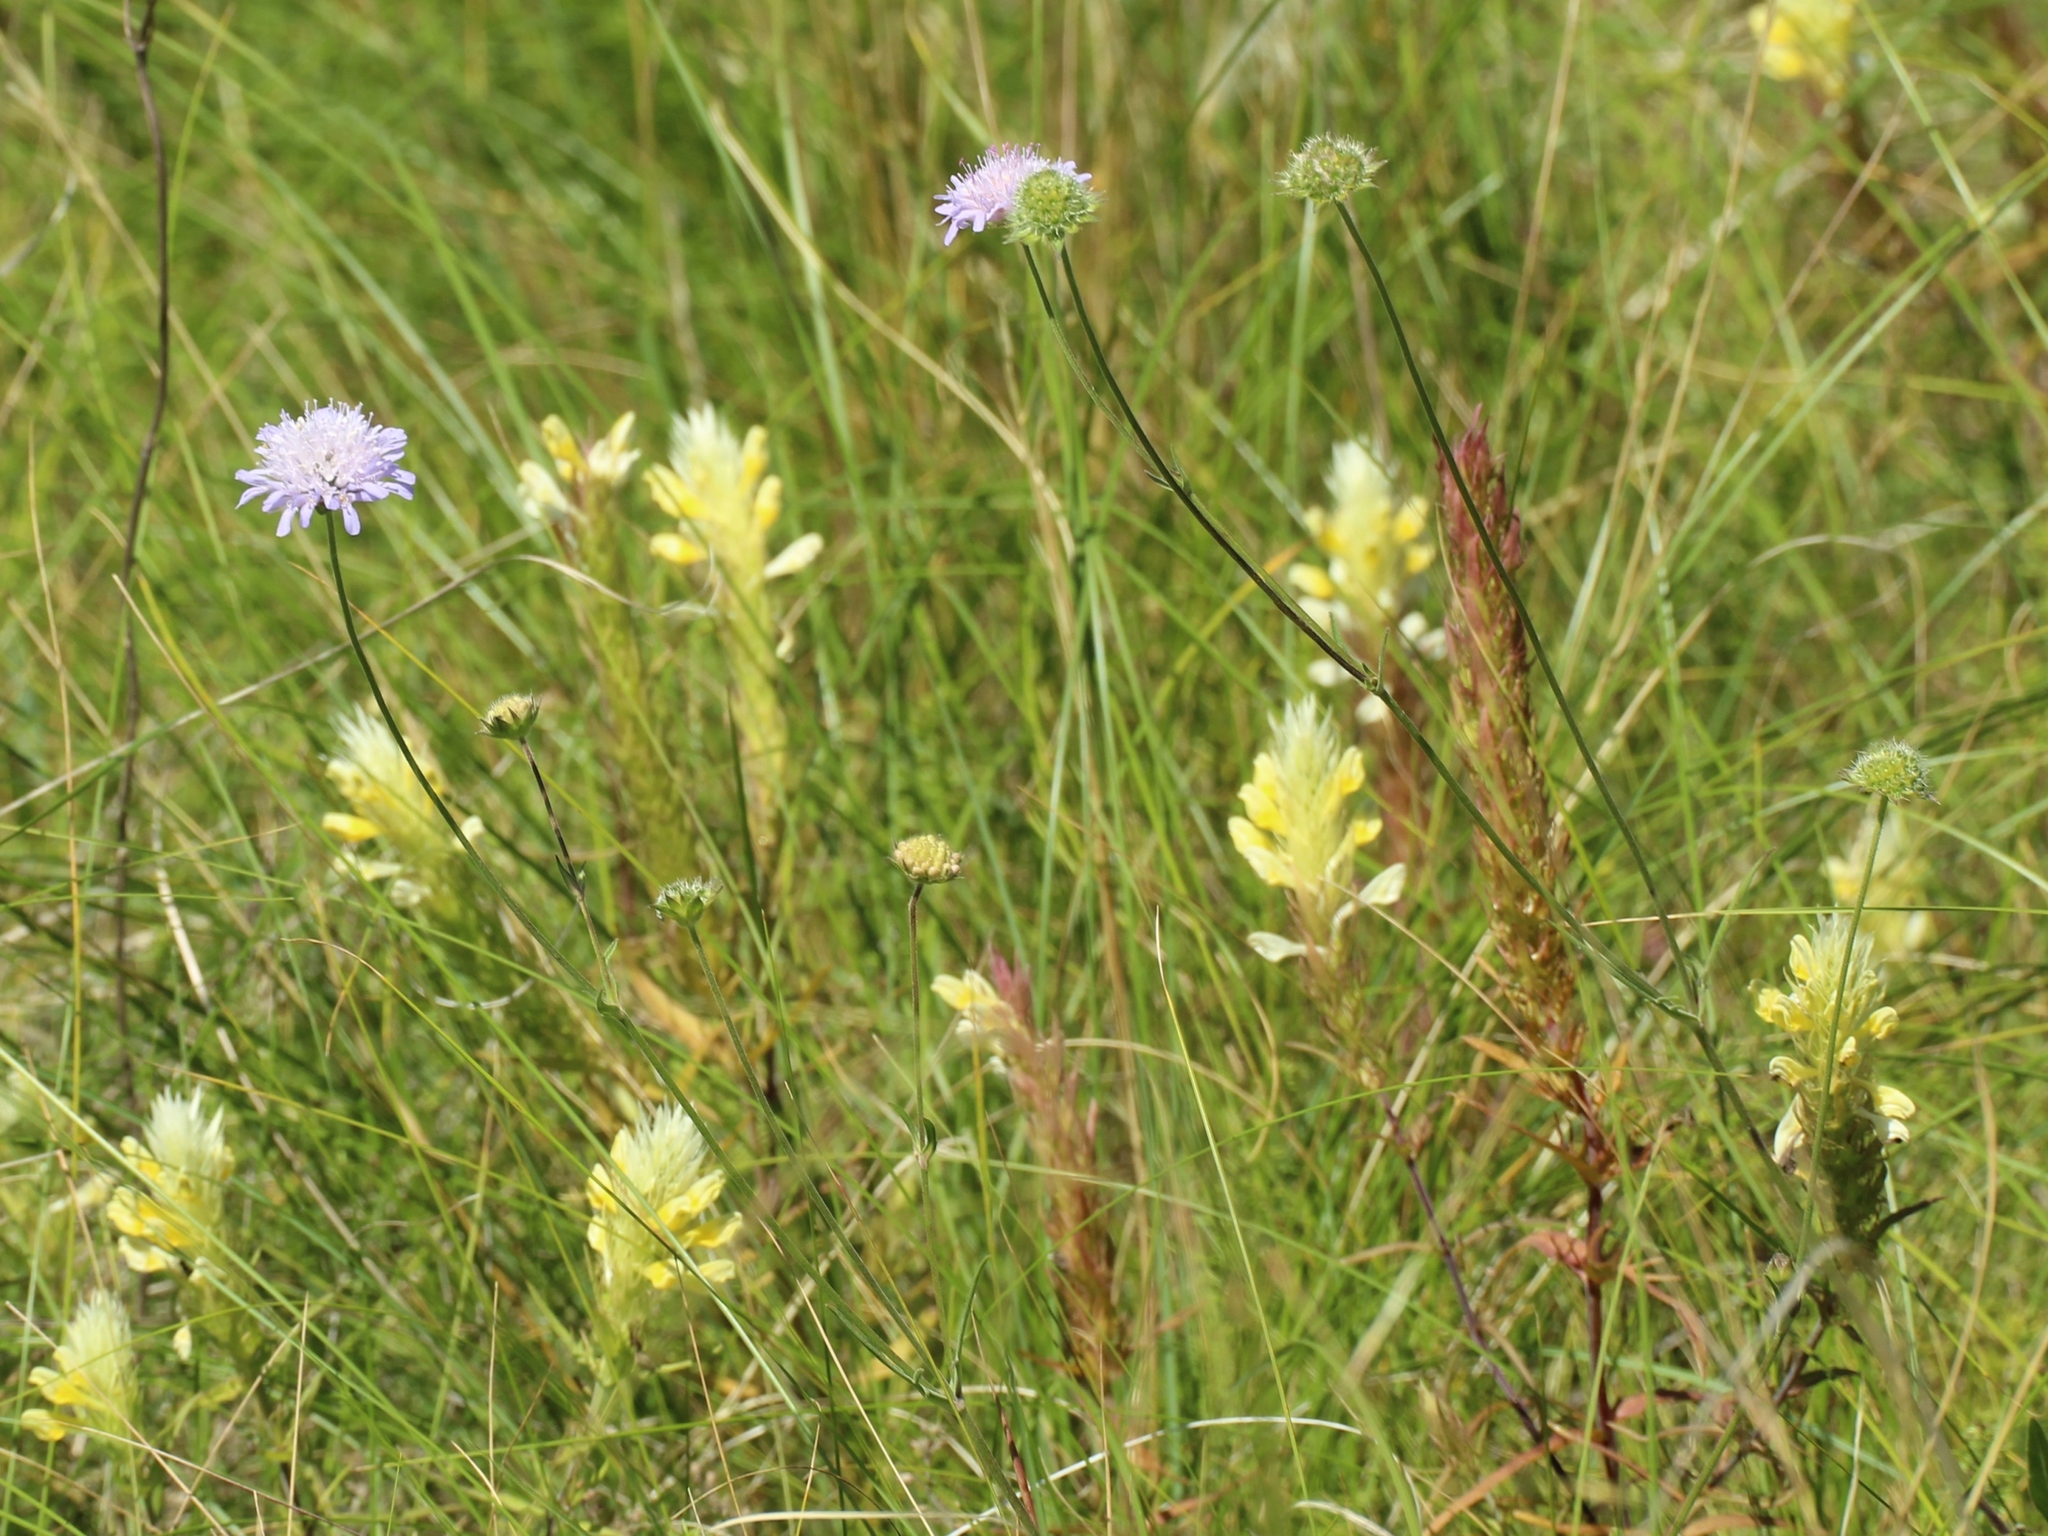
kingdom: Plantae
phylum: Tracheophyta
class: Magnoliopsida
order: Dipsacales
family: Caprifoliaceae
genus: Knautia
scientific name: Knautia arvensis
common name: Field scabiosa
